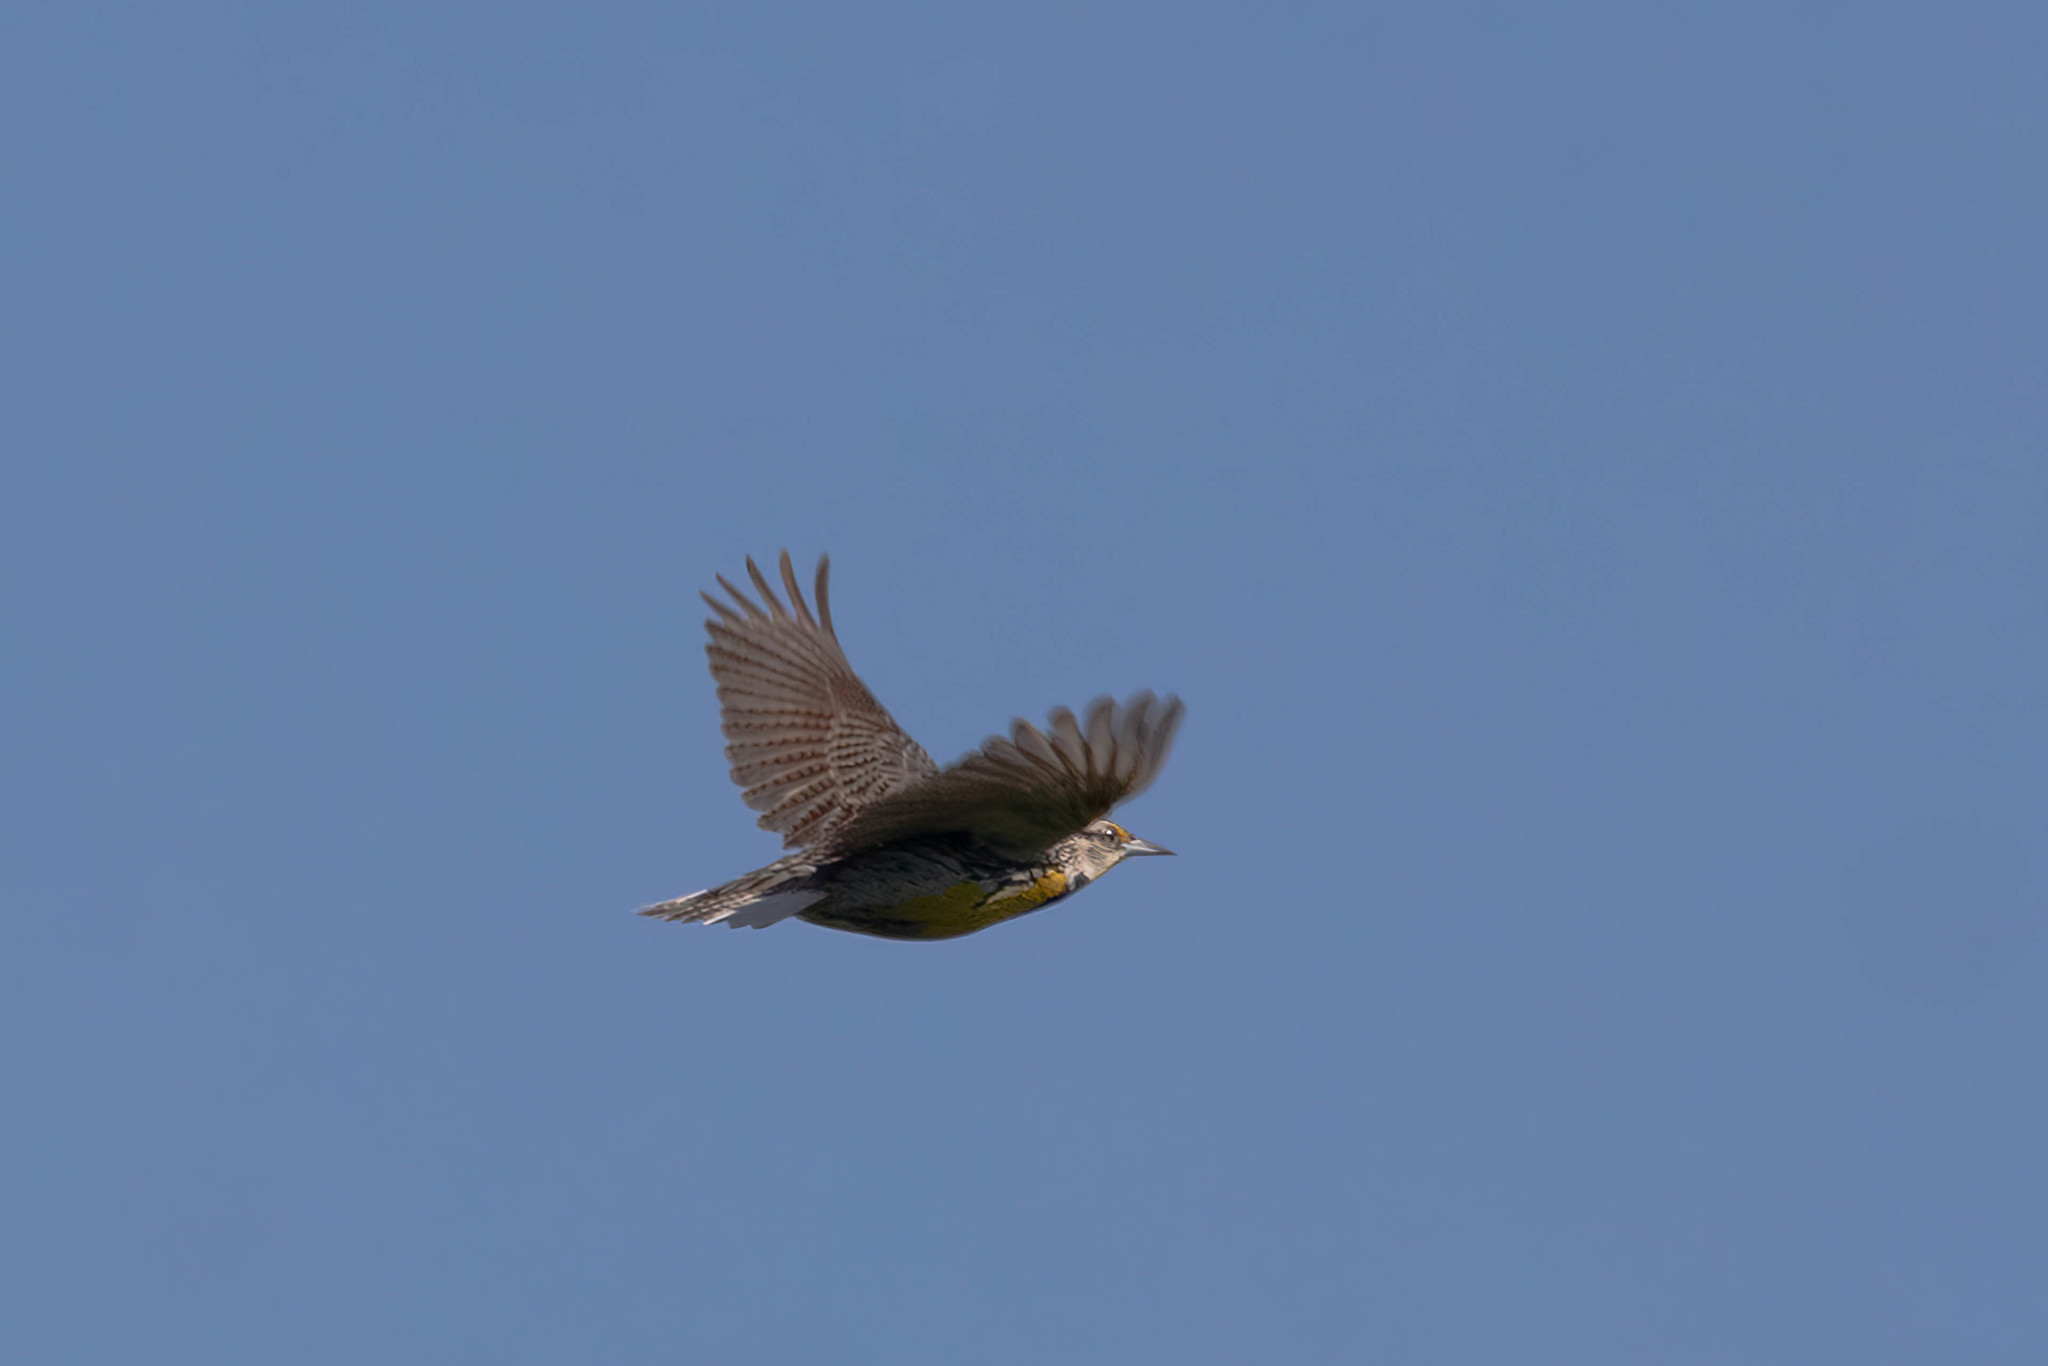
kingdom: Animalia
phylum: Chordata
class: Aves
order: Passeriformes
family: Icteridae
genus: Sturnella
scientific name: Sturnella magna
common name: Eastern meadowlark
